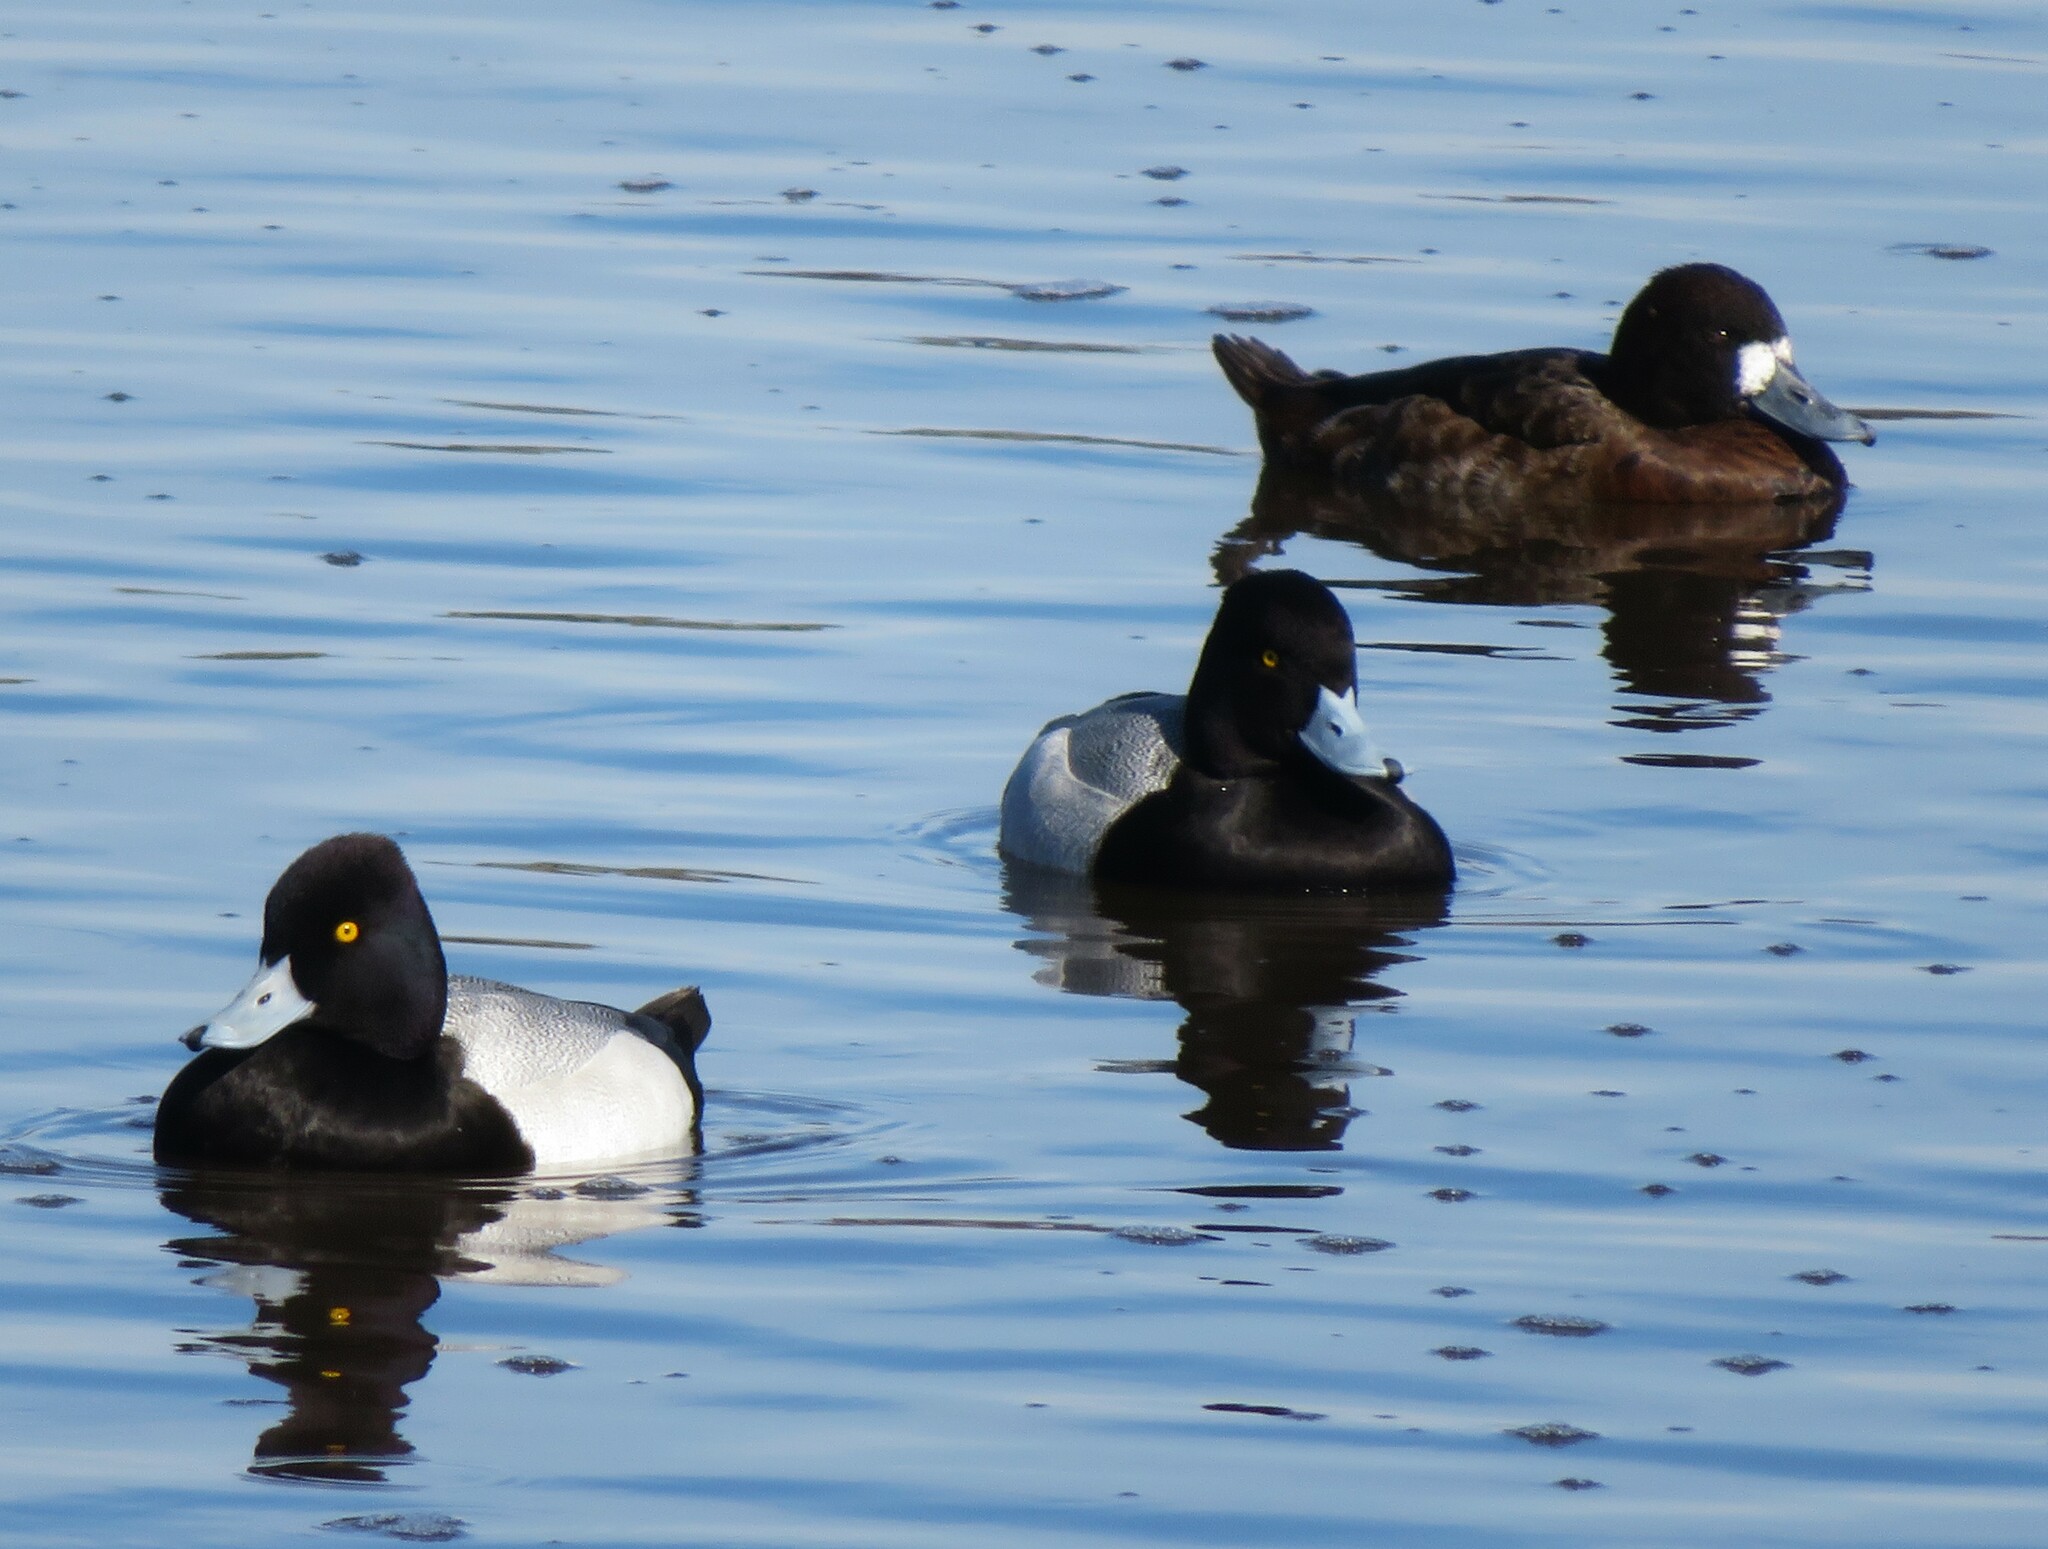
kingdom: Animalia
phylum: Chordata
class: Aves
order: Anseriformes
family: Anatidae
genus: Aythya
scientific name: Aythya affinis
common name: Lesser scaup
